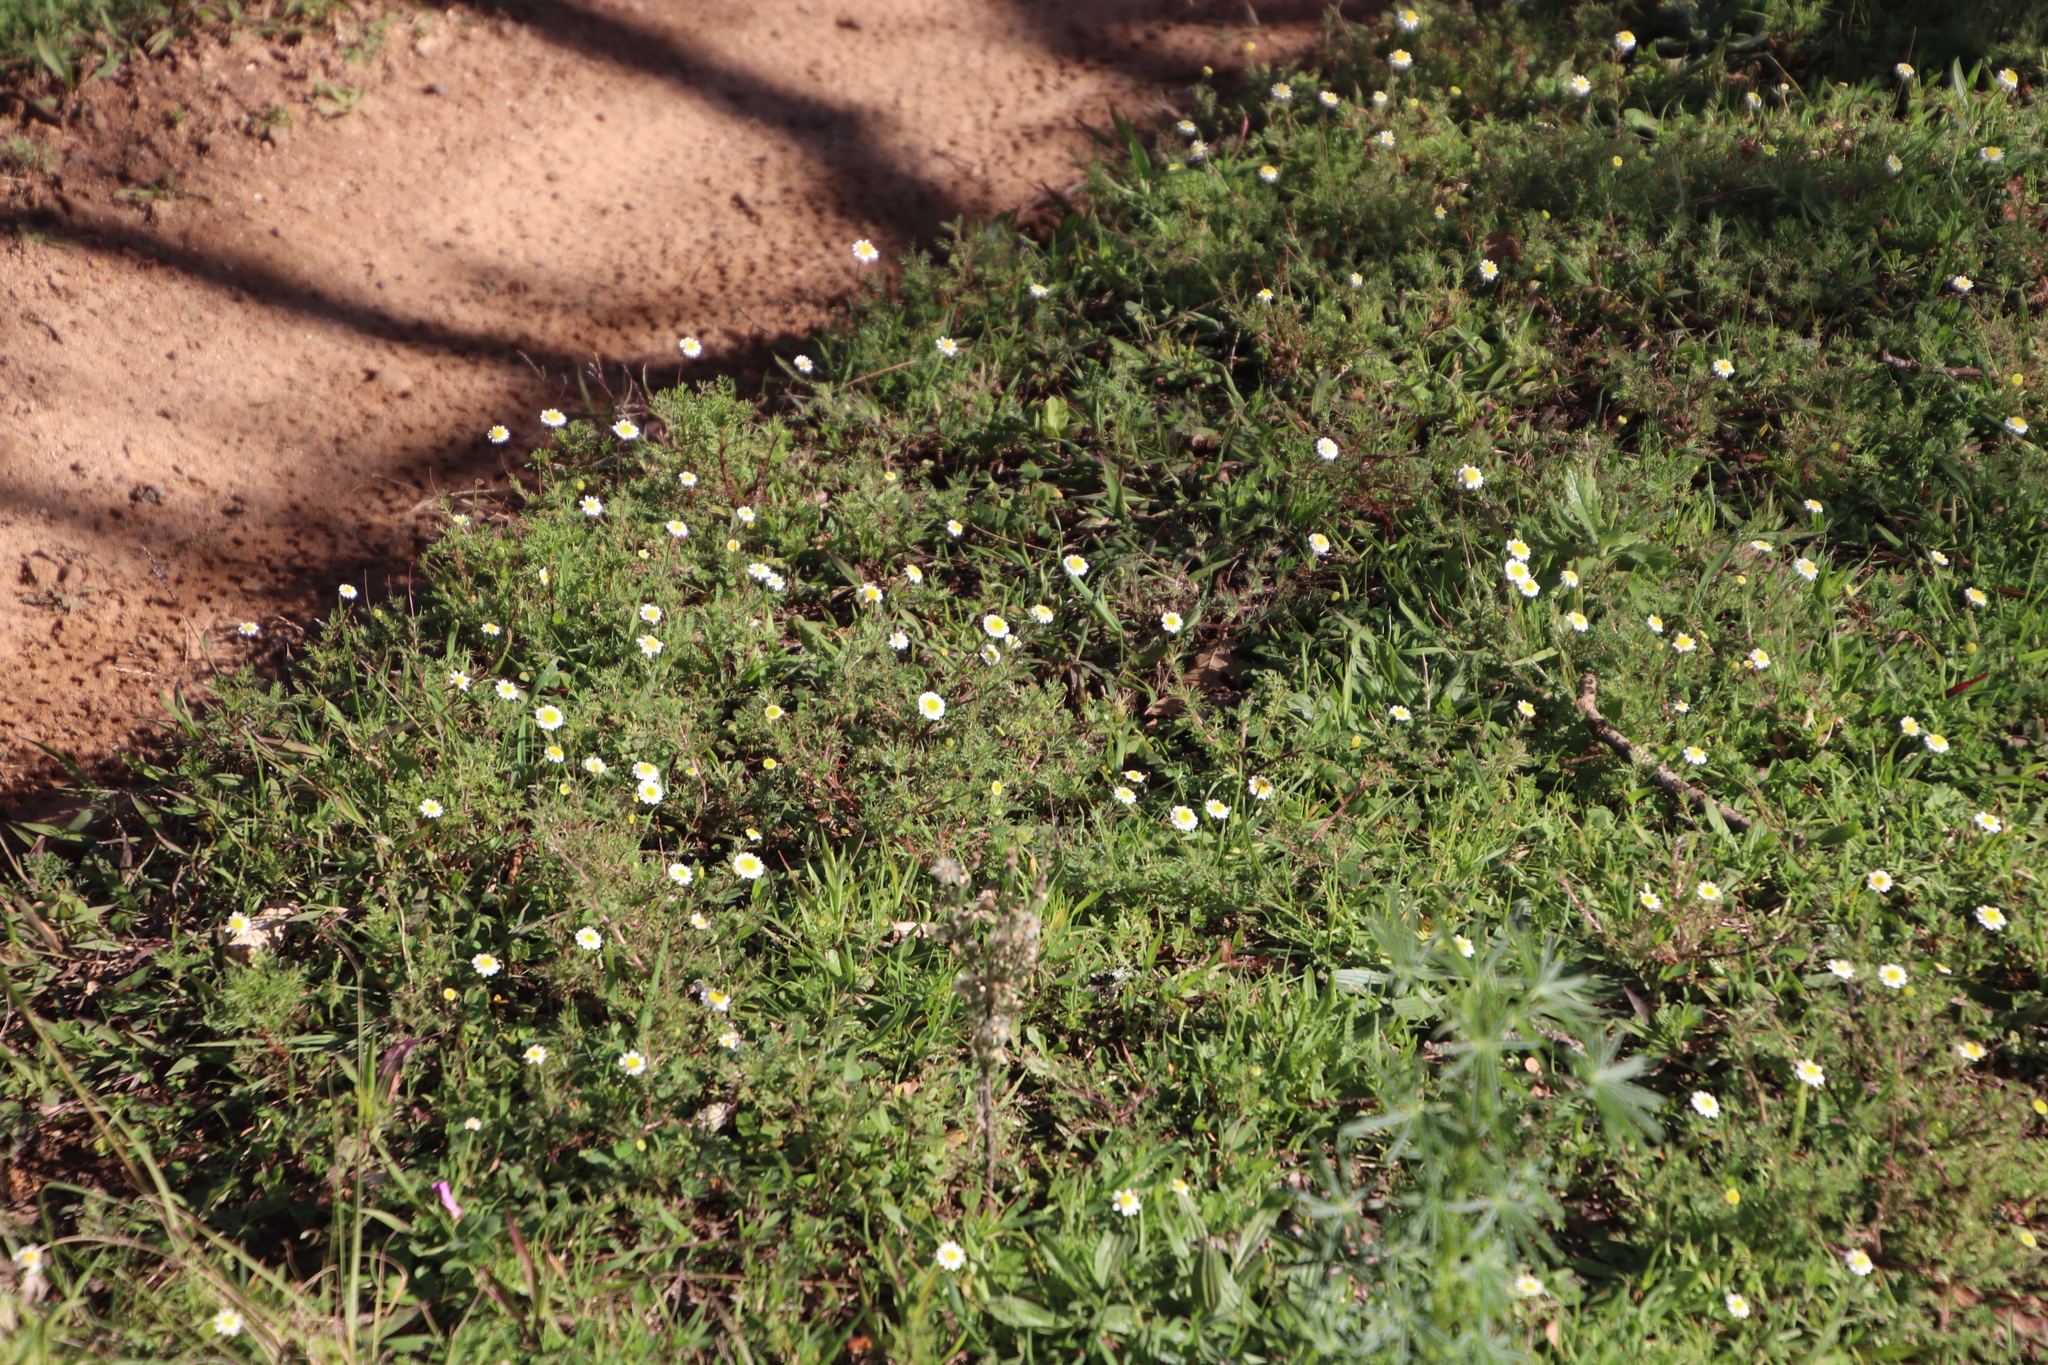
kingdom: Plantae
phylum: Tracheophyta
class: Magnoliopsida
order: Asterales
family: Asteraceae
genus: Cotula
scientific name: Cotula turbinata
